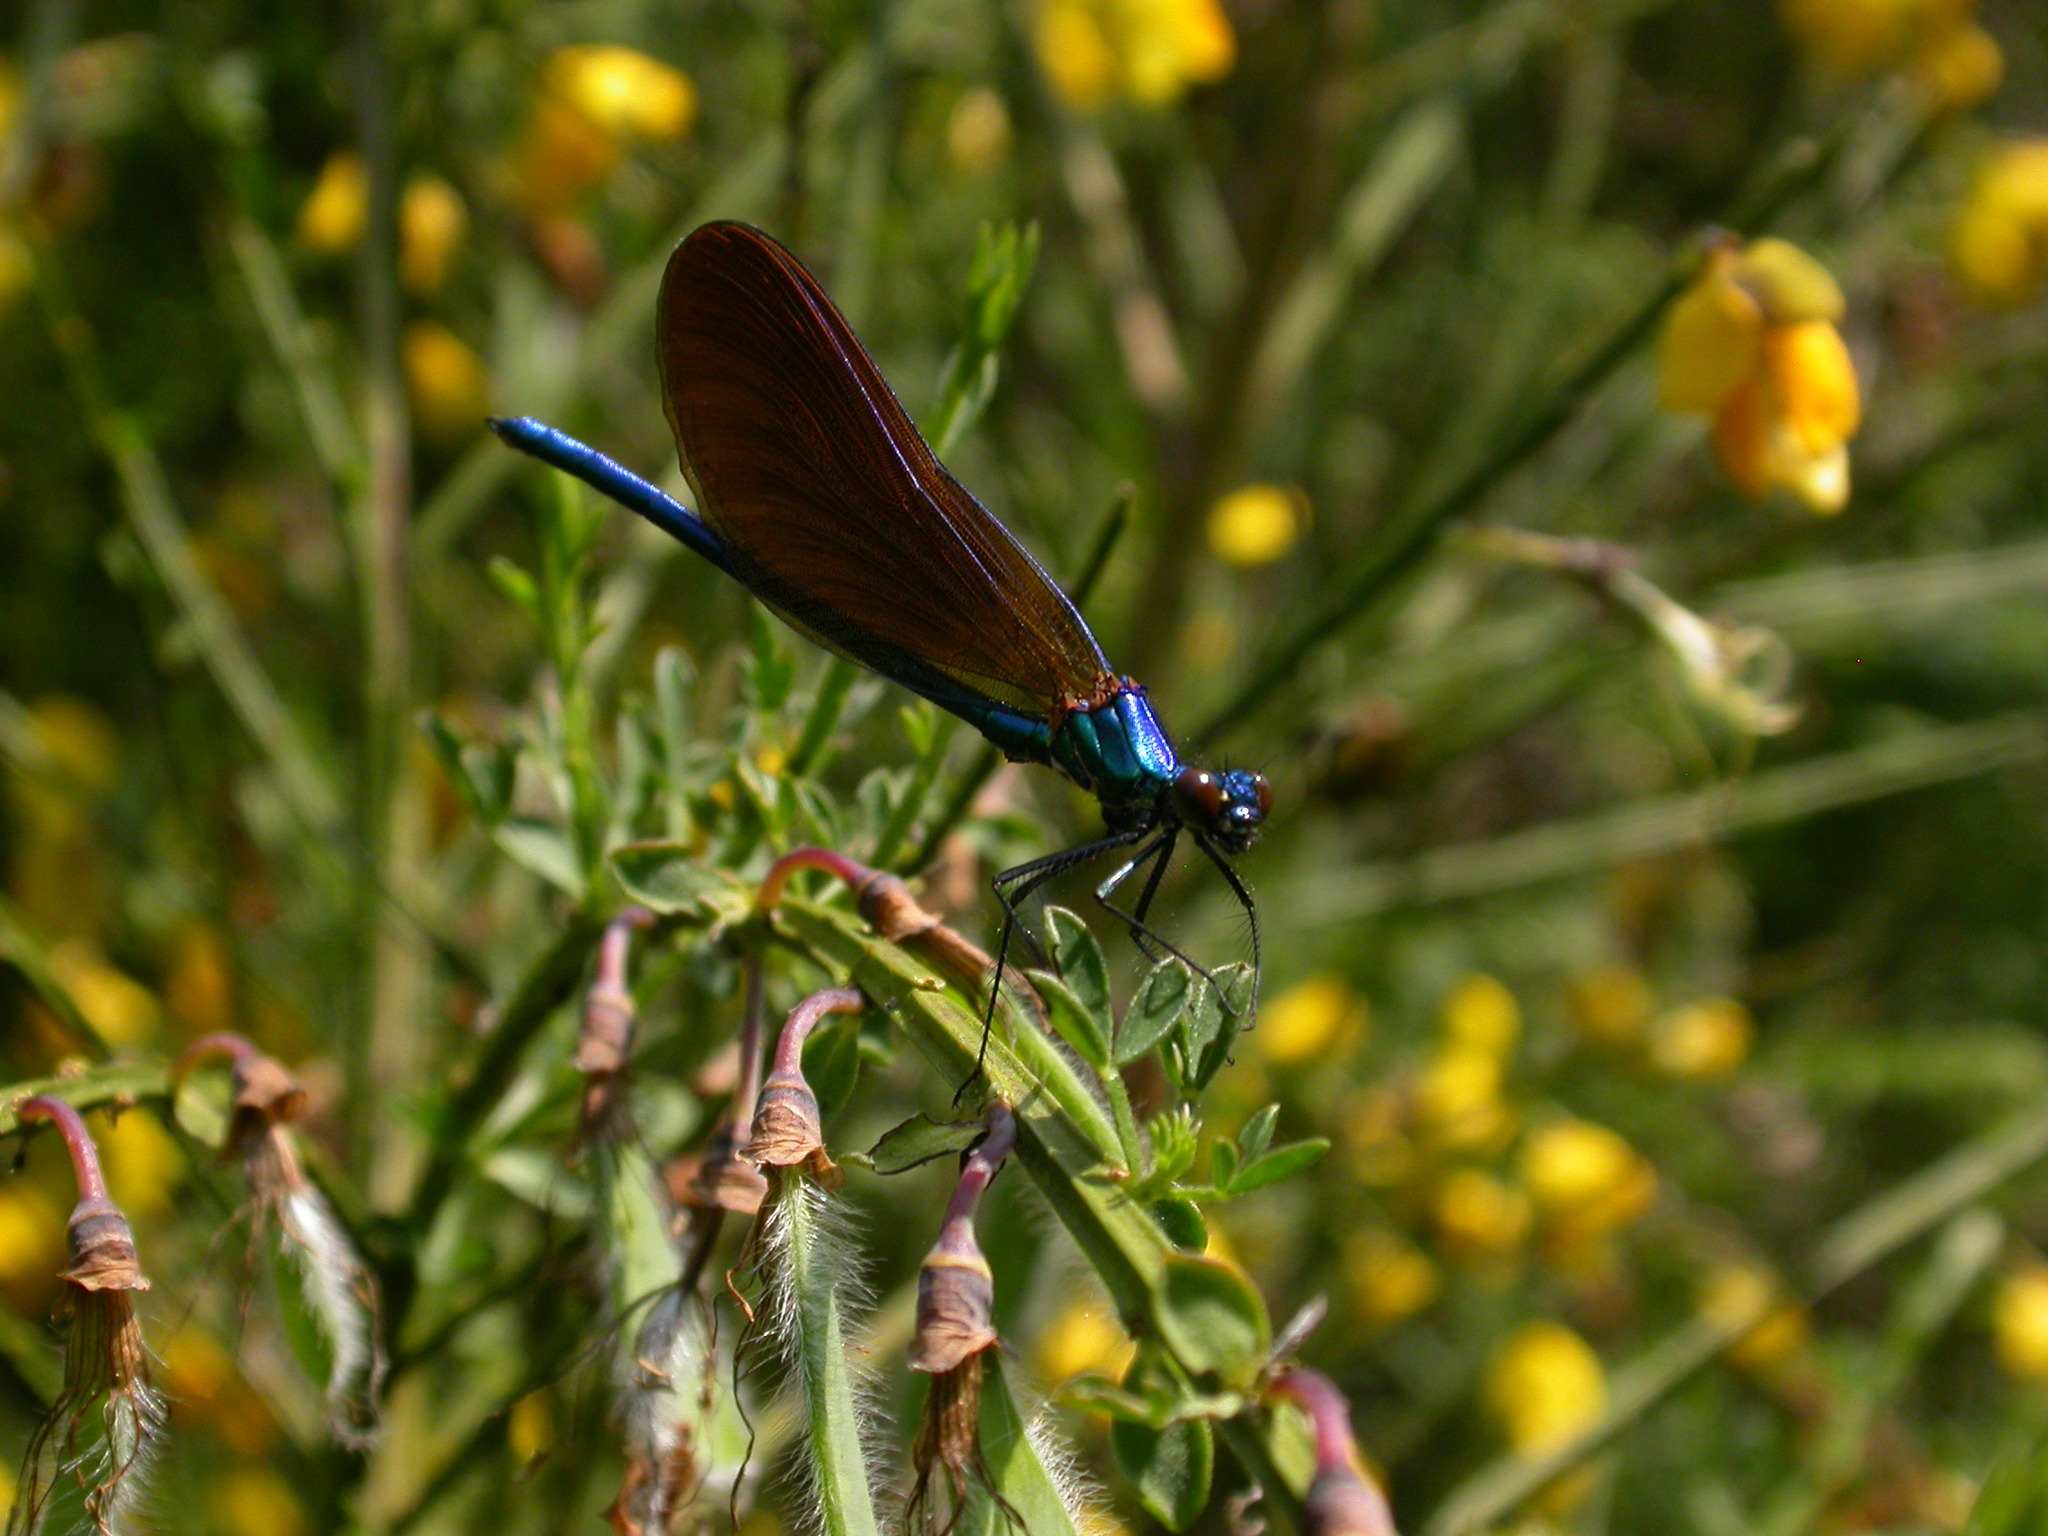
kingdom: Animalia
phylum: Arthropoda
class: Insecta
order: Odonata
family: Calopterygidae
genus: Calopteryx
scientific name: Calopteryx virgo
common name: Beautiful demoiselle
